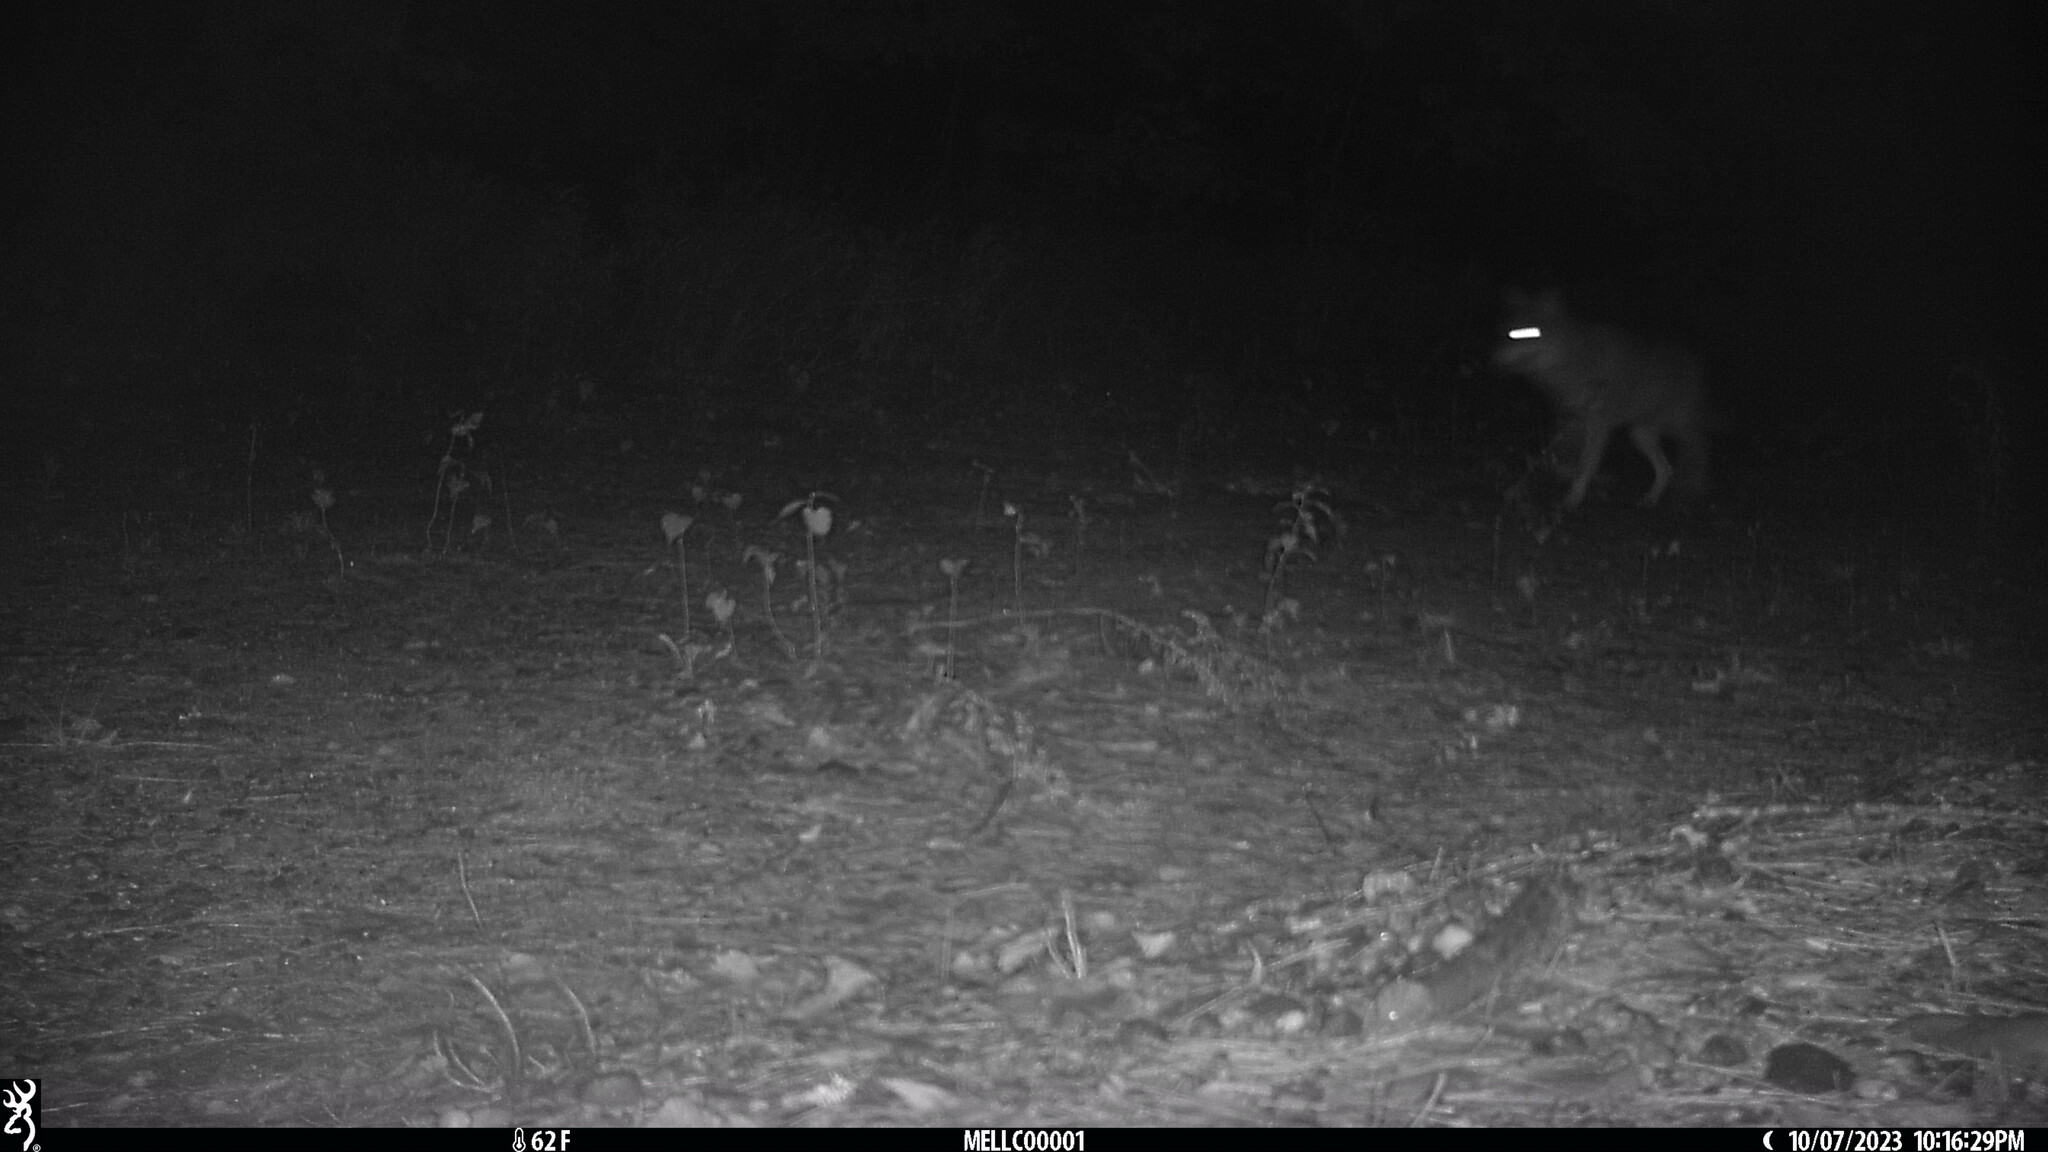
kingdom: Animalia
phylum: Chordata
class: Mammalia
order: Carnivora
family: Canidae
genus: Canis
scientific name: Canis latrans
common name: Coyote
